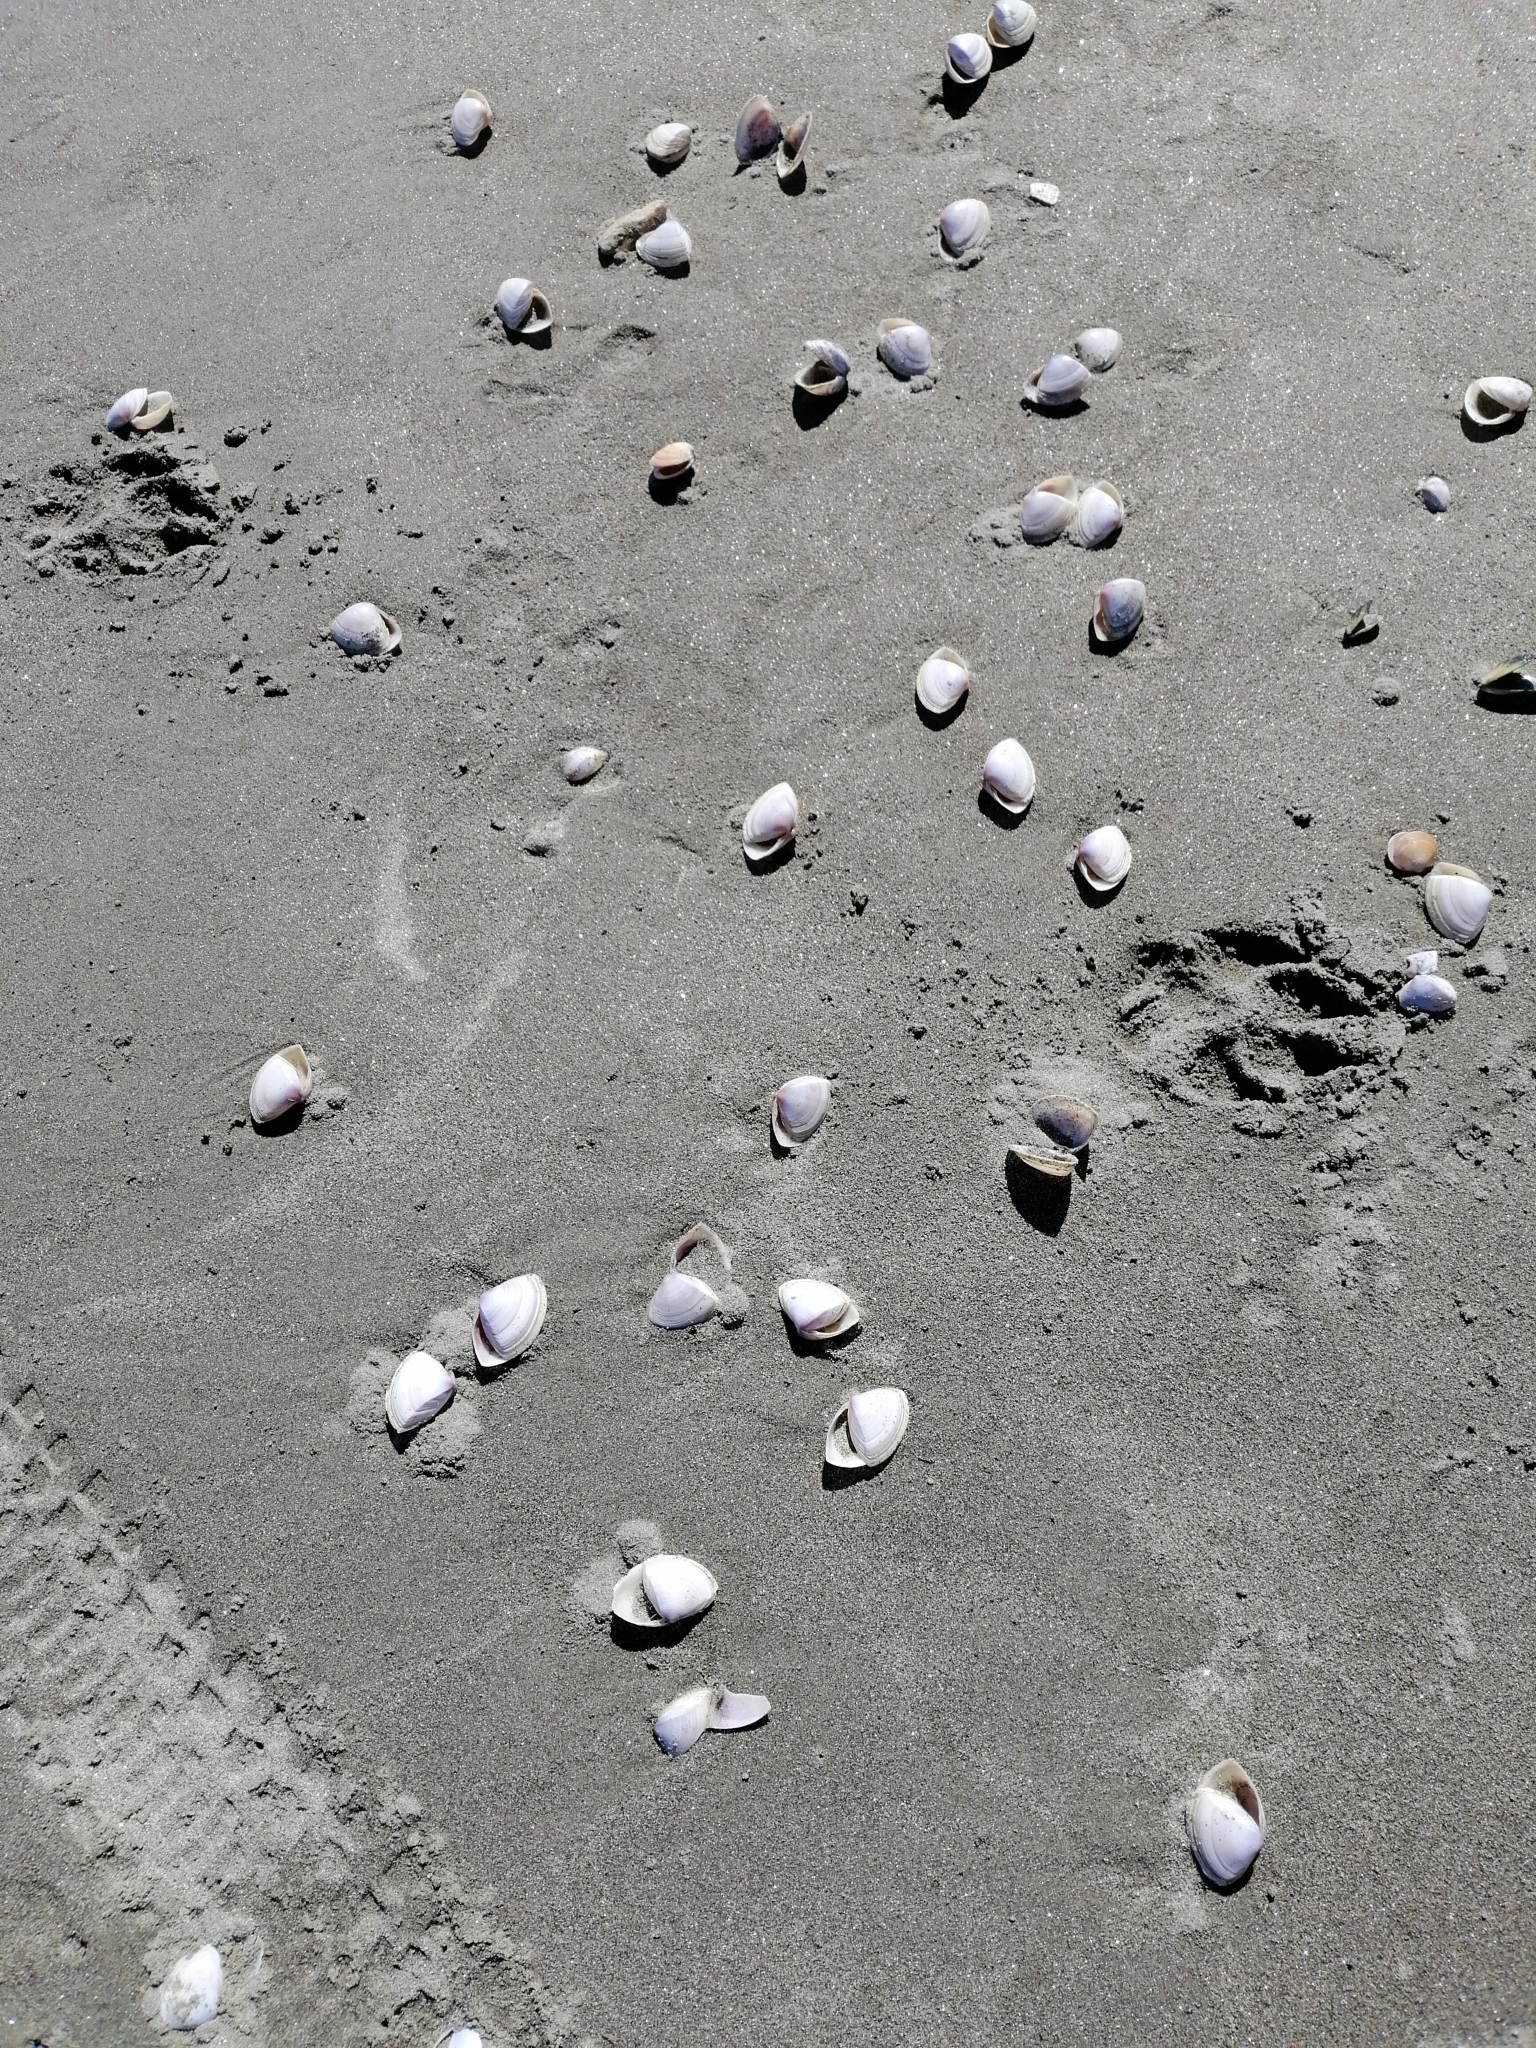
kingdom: Animalia
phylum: Mollusca
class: Bivalvia
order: Venerida
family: Mactridae
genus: Crassula
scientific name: Crassula aequilatera
